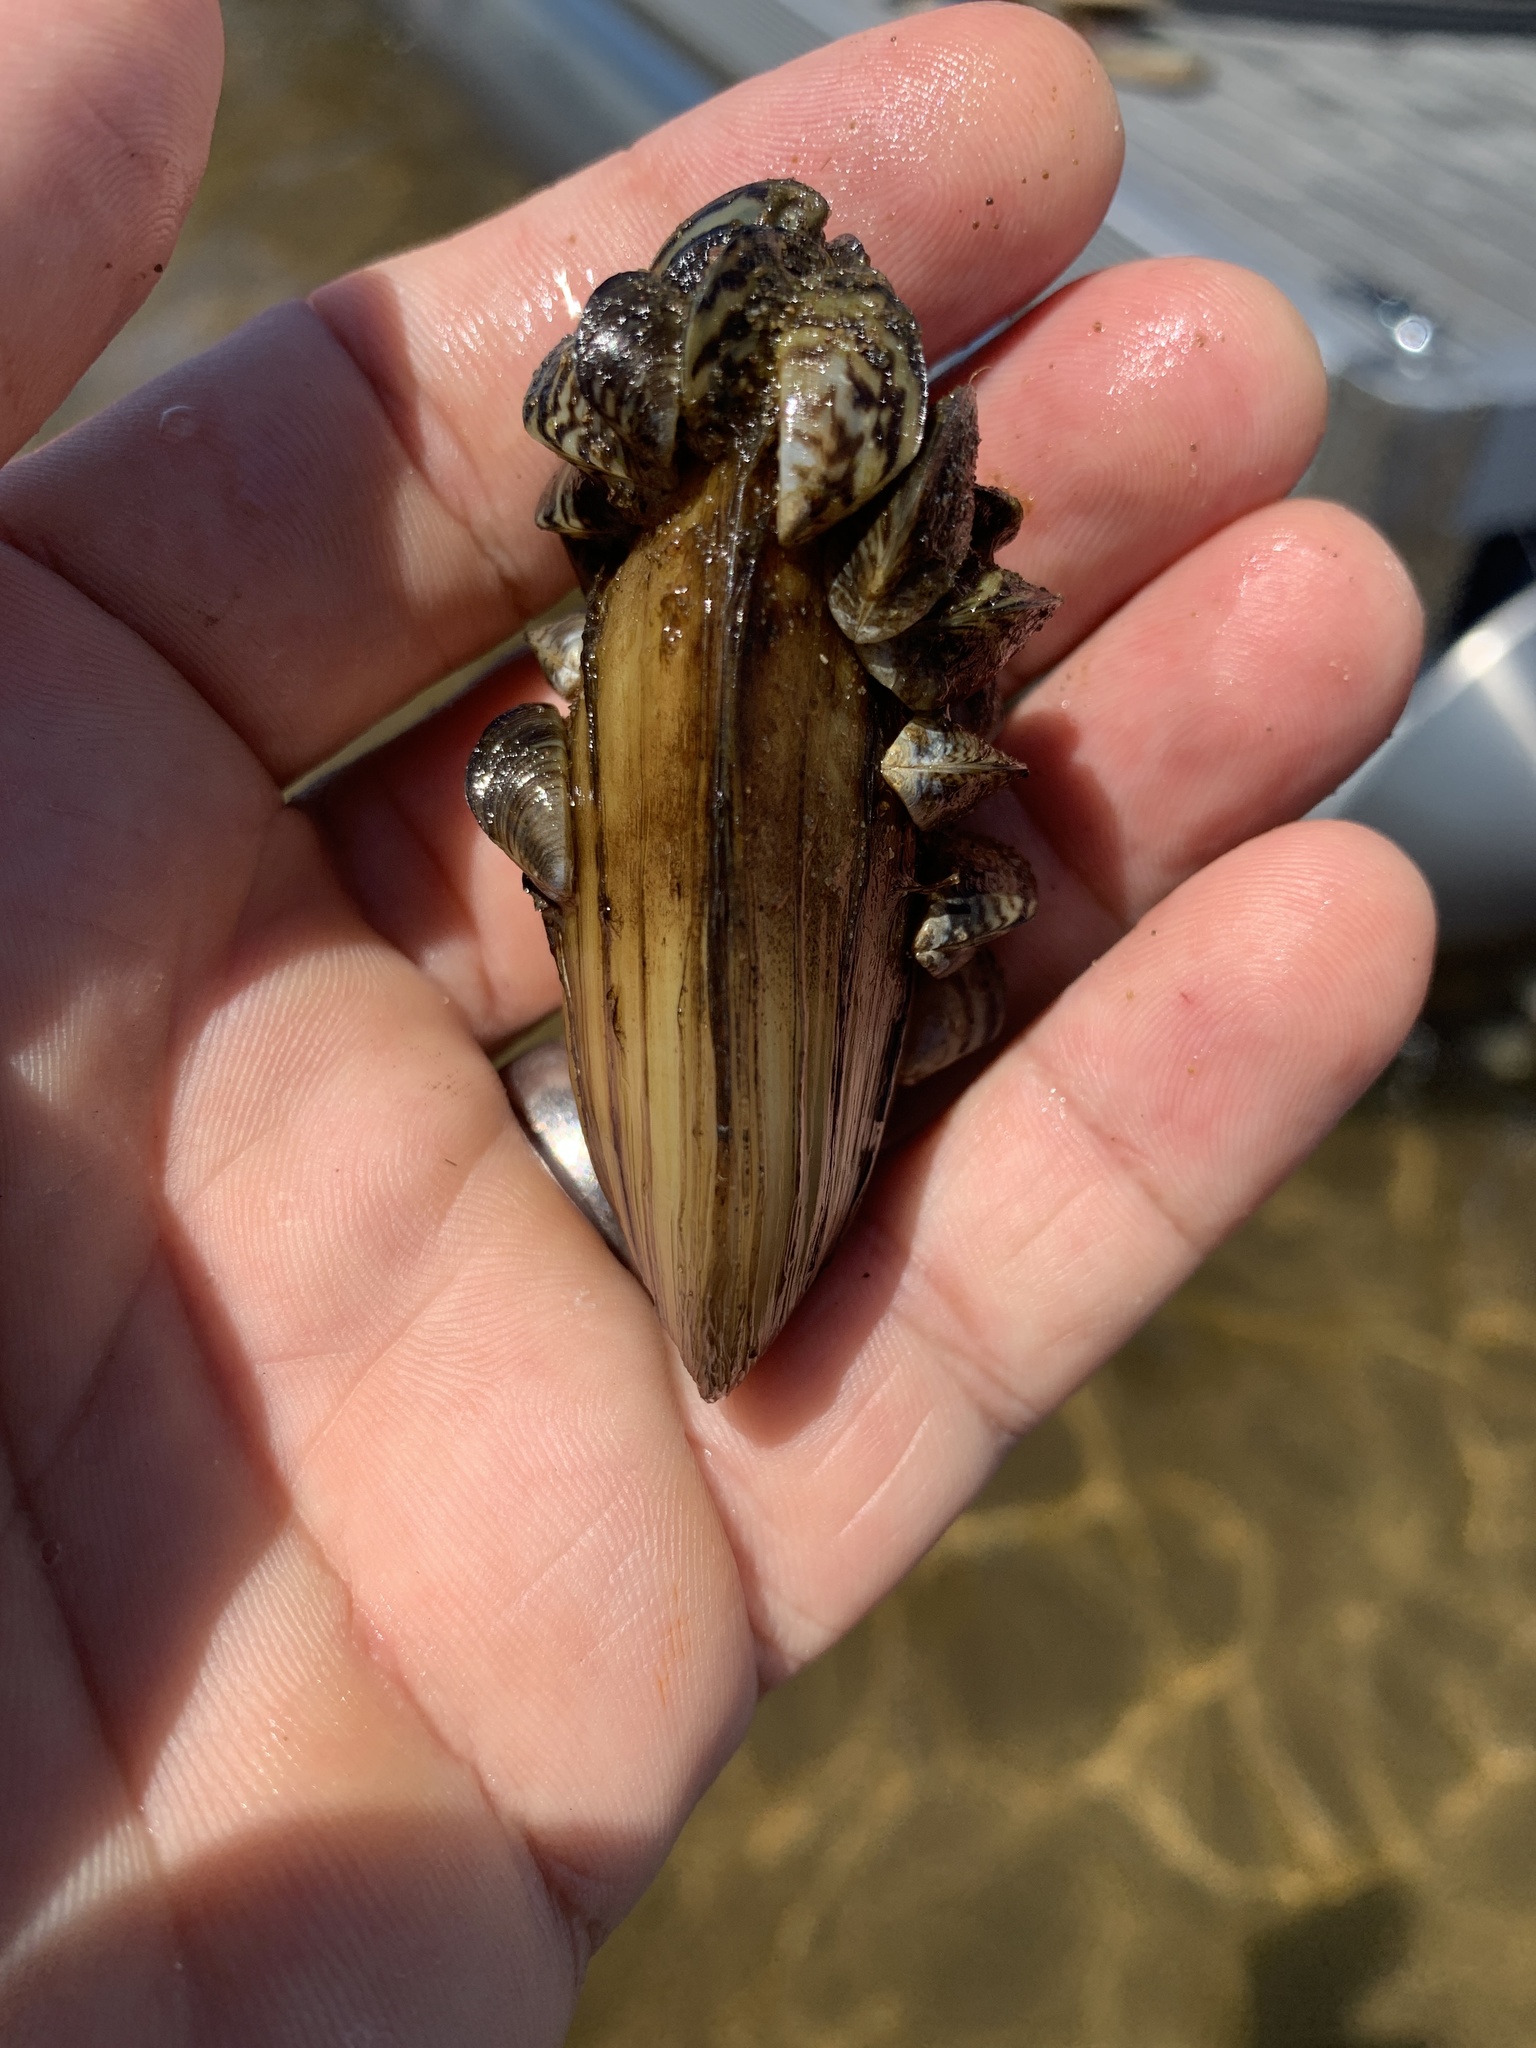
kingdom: Animalia
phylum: Mollusca
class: Bivalvia
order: Myida
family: Dreissenidae
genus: Dreissena
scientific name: Dreissena polymorpha
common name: Zebra mussel
